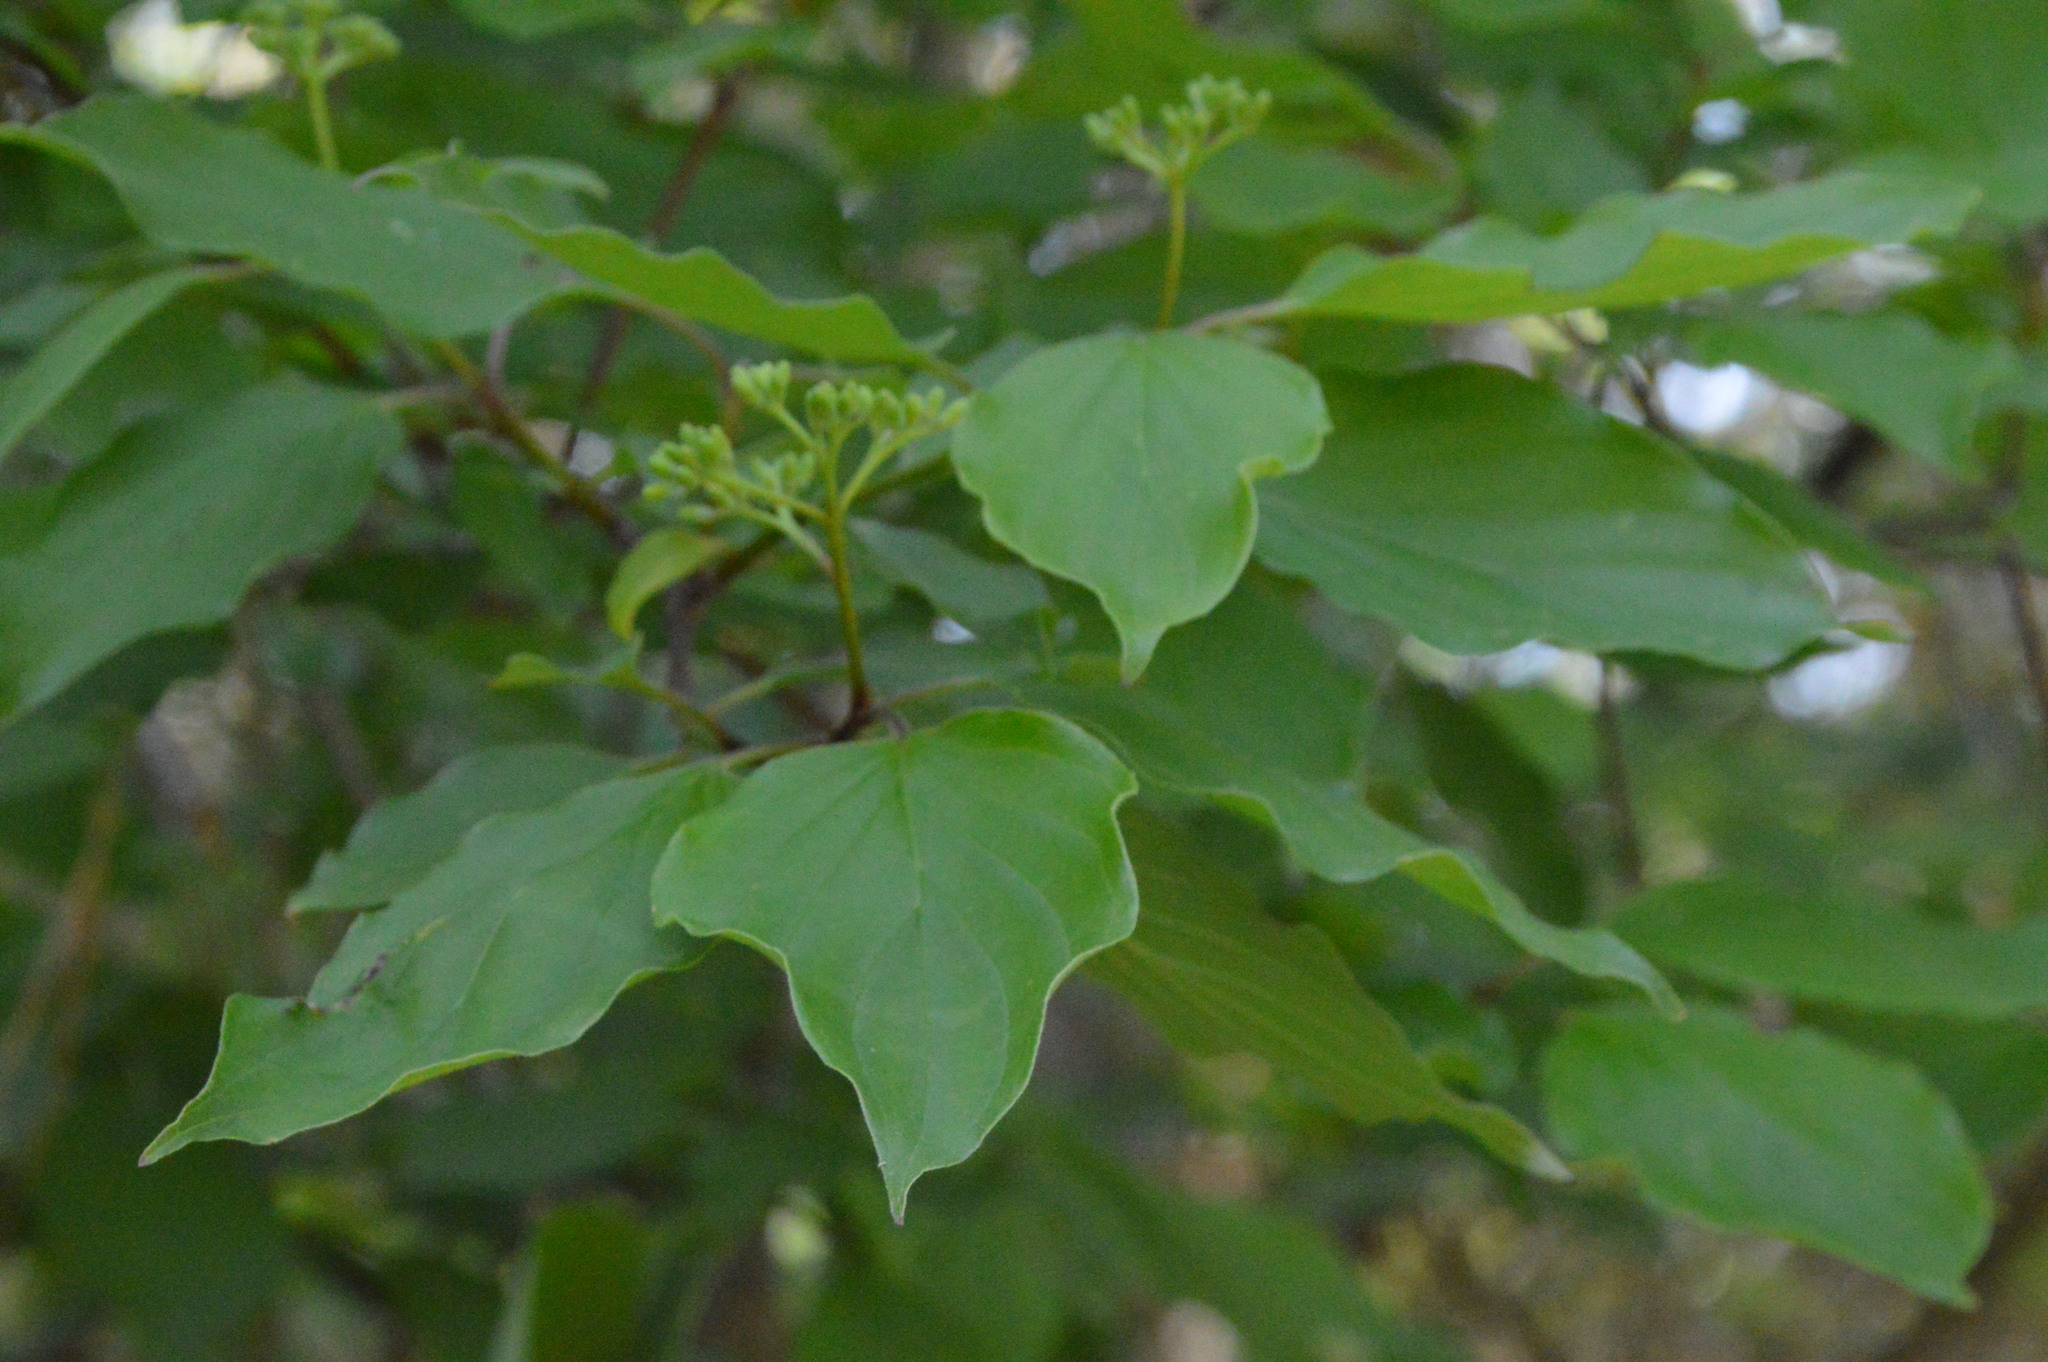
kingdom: Plantae
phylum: Tracheophyta
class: Magnoliopsida
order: Cornales
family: Cornaceae
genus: Cornus
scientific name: Cornus drummondii
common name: Rough-leaf dogwood
